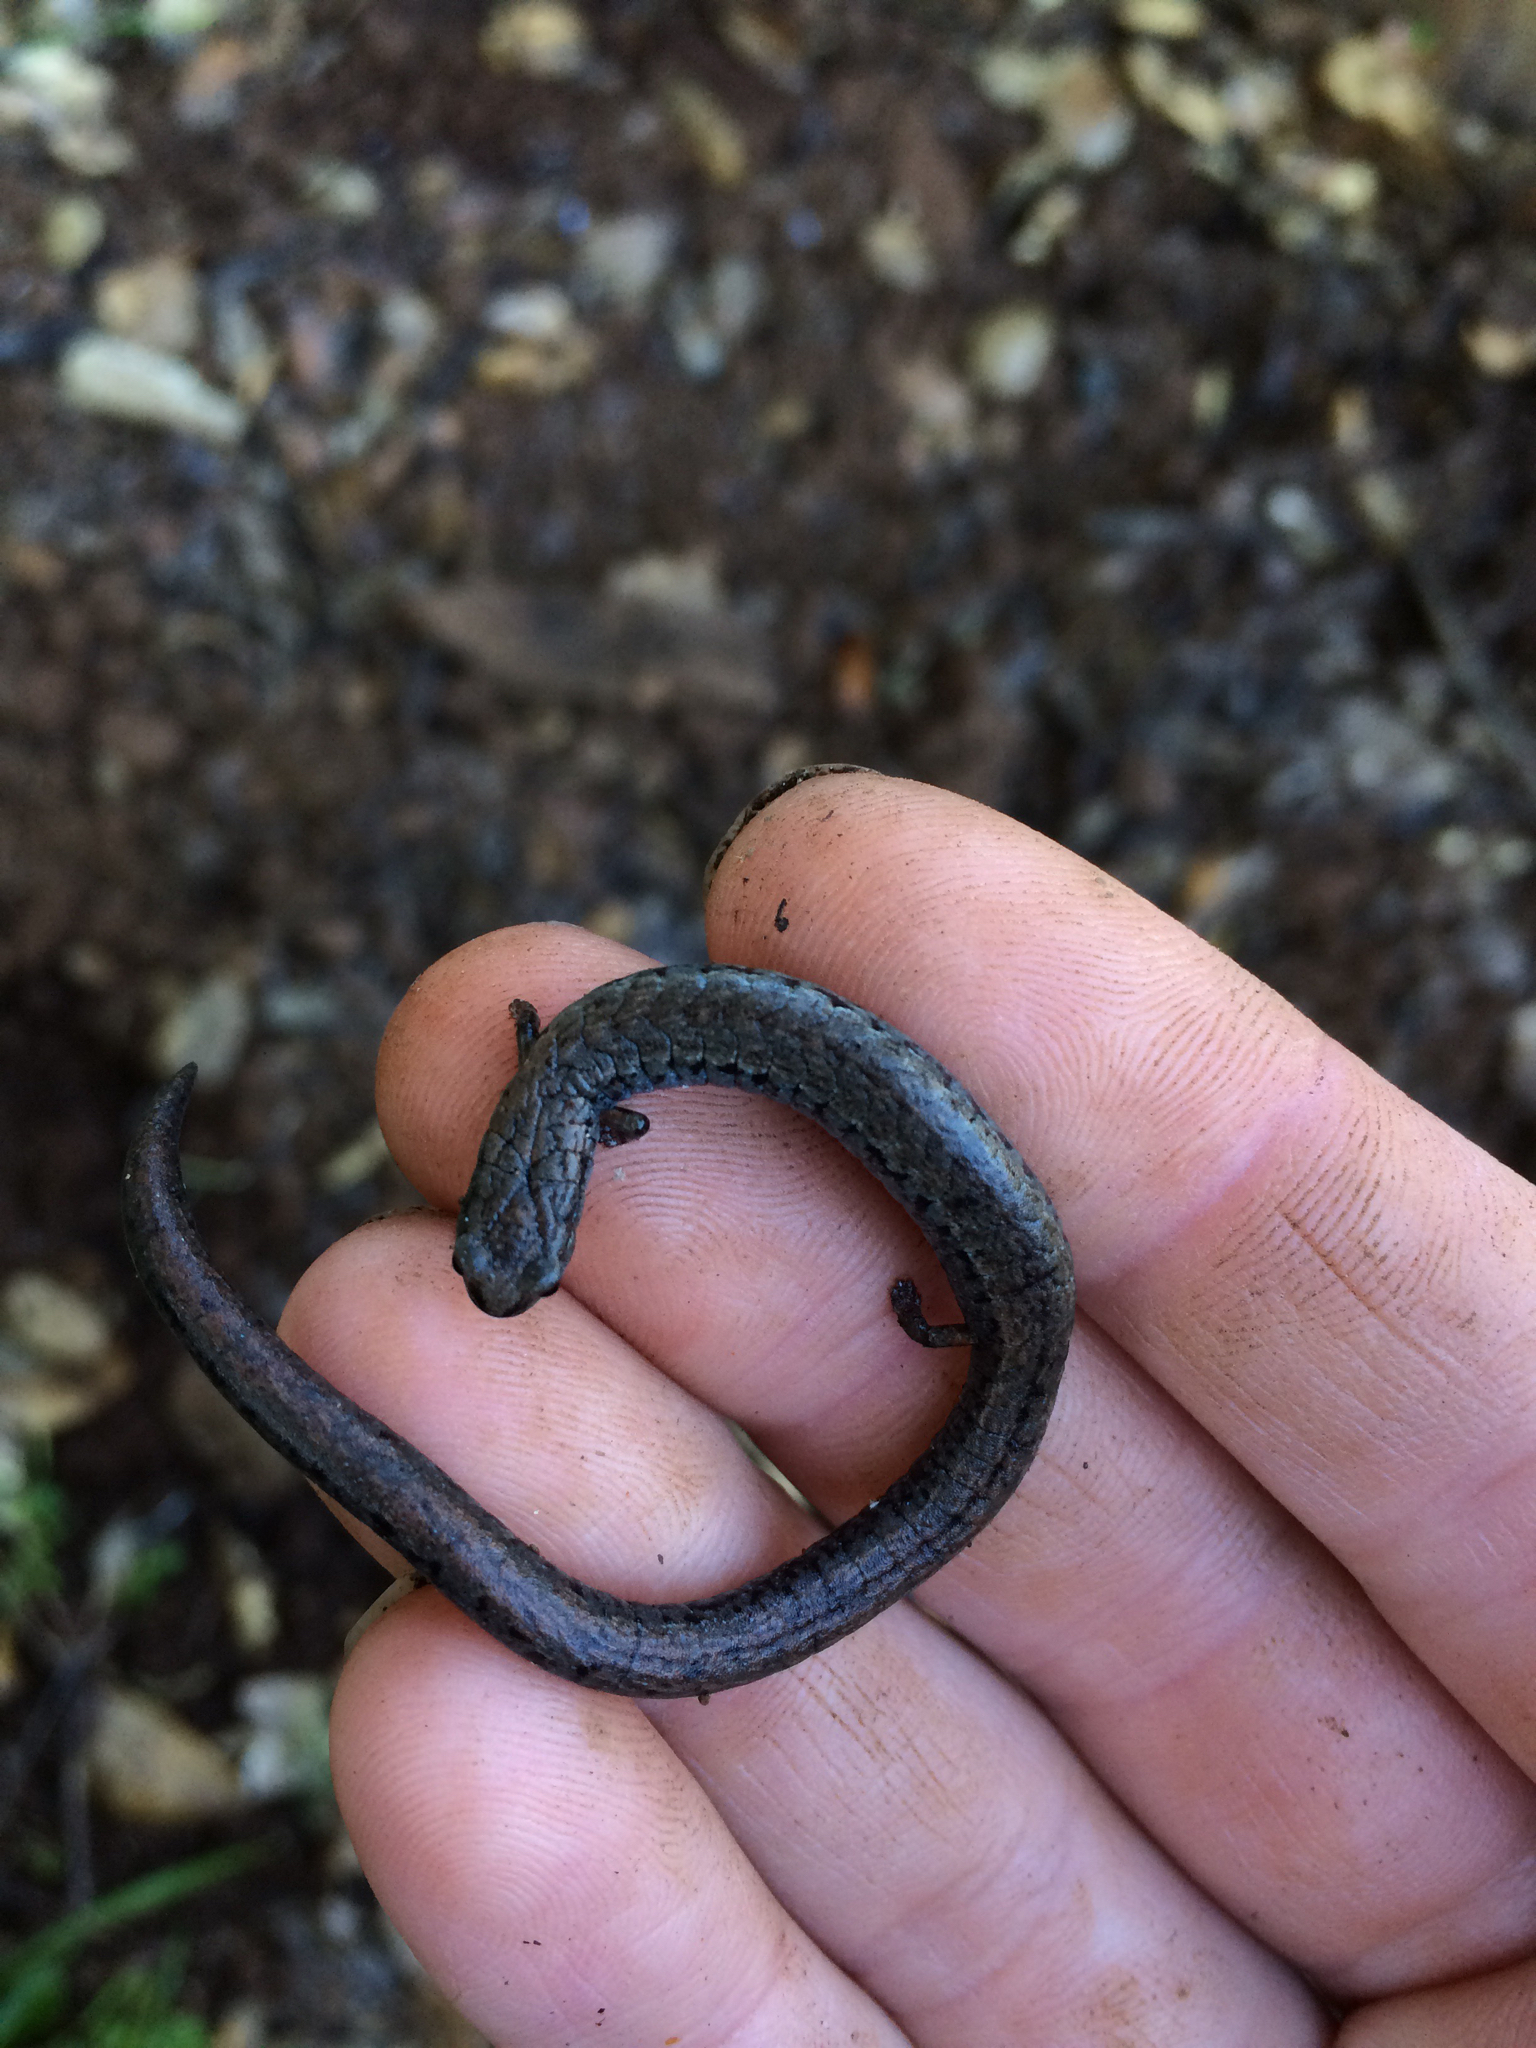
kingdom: Animalia
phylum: Chordata
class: Amphibia
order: Caudata
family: Plethodontidae
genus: Batrachoseps
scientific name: Batrachoseps attenuatus
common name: California slender salamander
